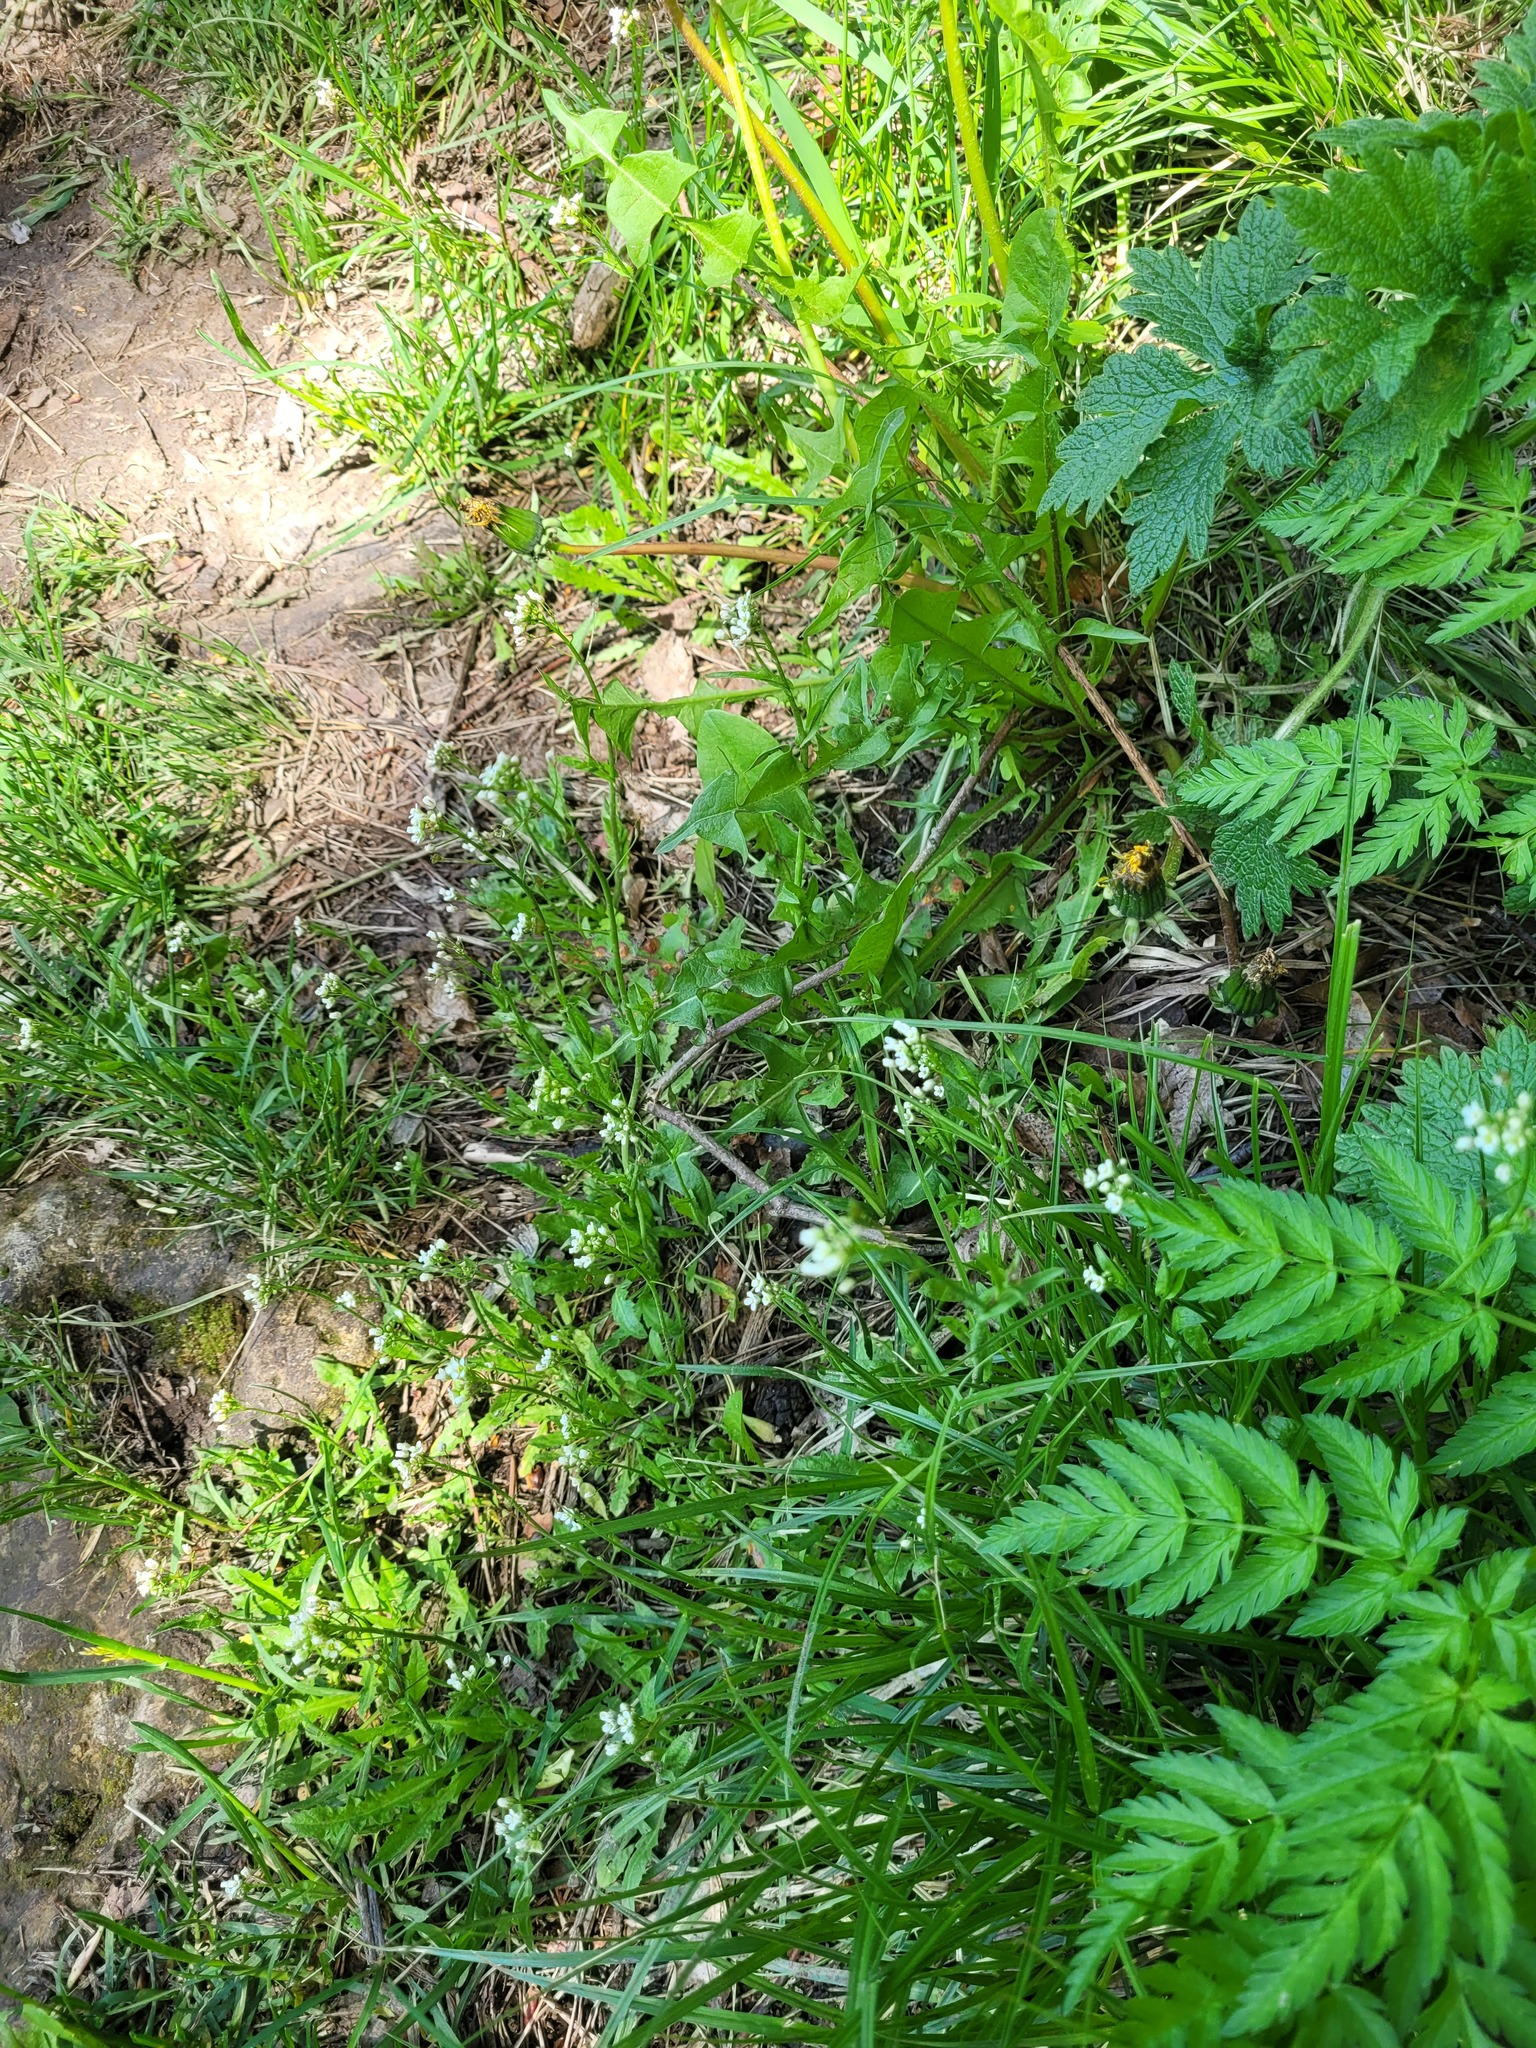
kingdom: Plantae
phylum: Tracheophyta
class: Magnoliopsida
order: Brassicales
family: Brassicaceae
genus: Capsella
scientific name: Capsella bursa-pastoris
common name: Shepherd's purse
